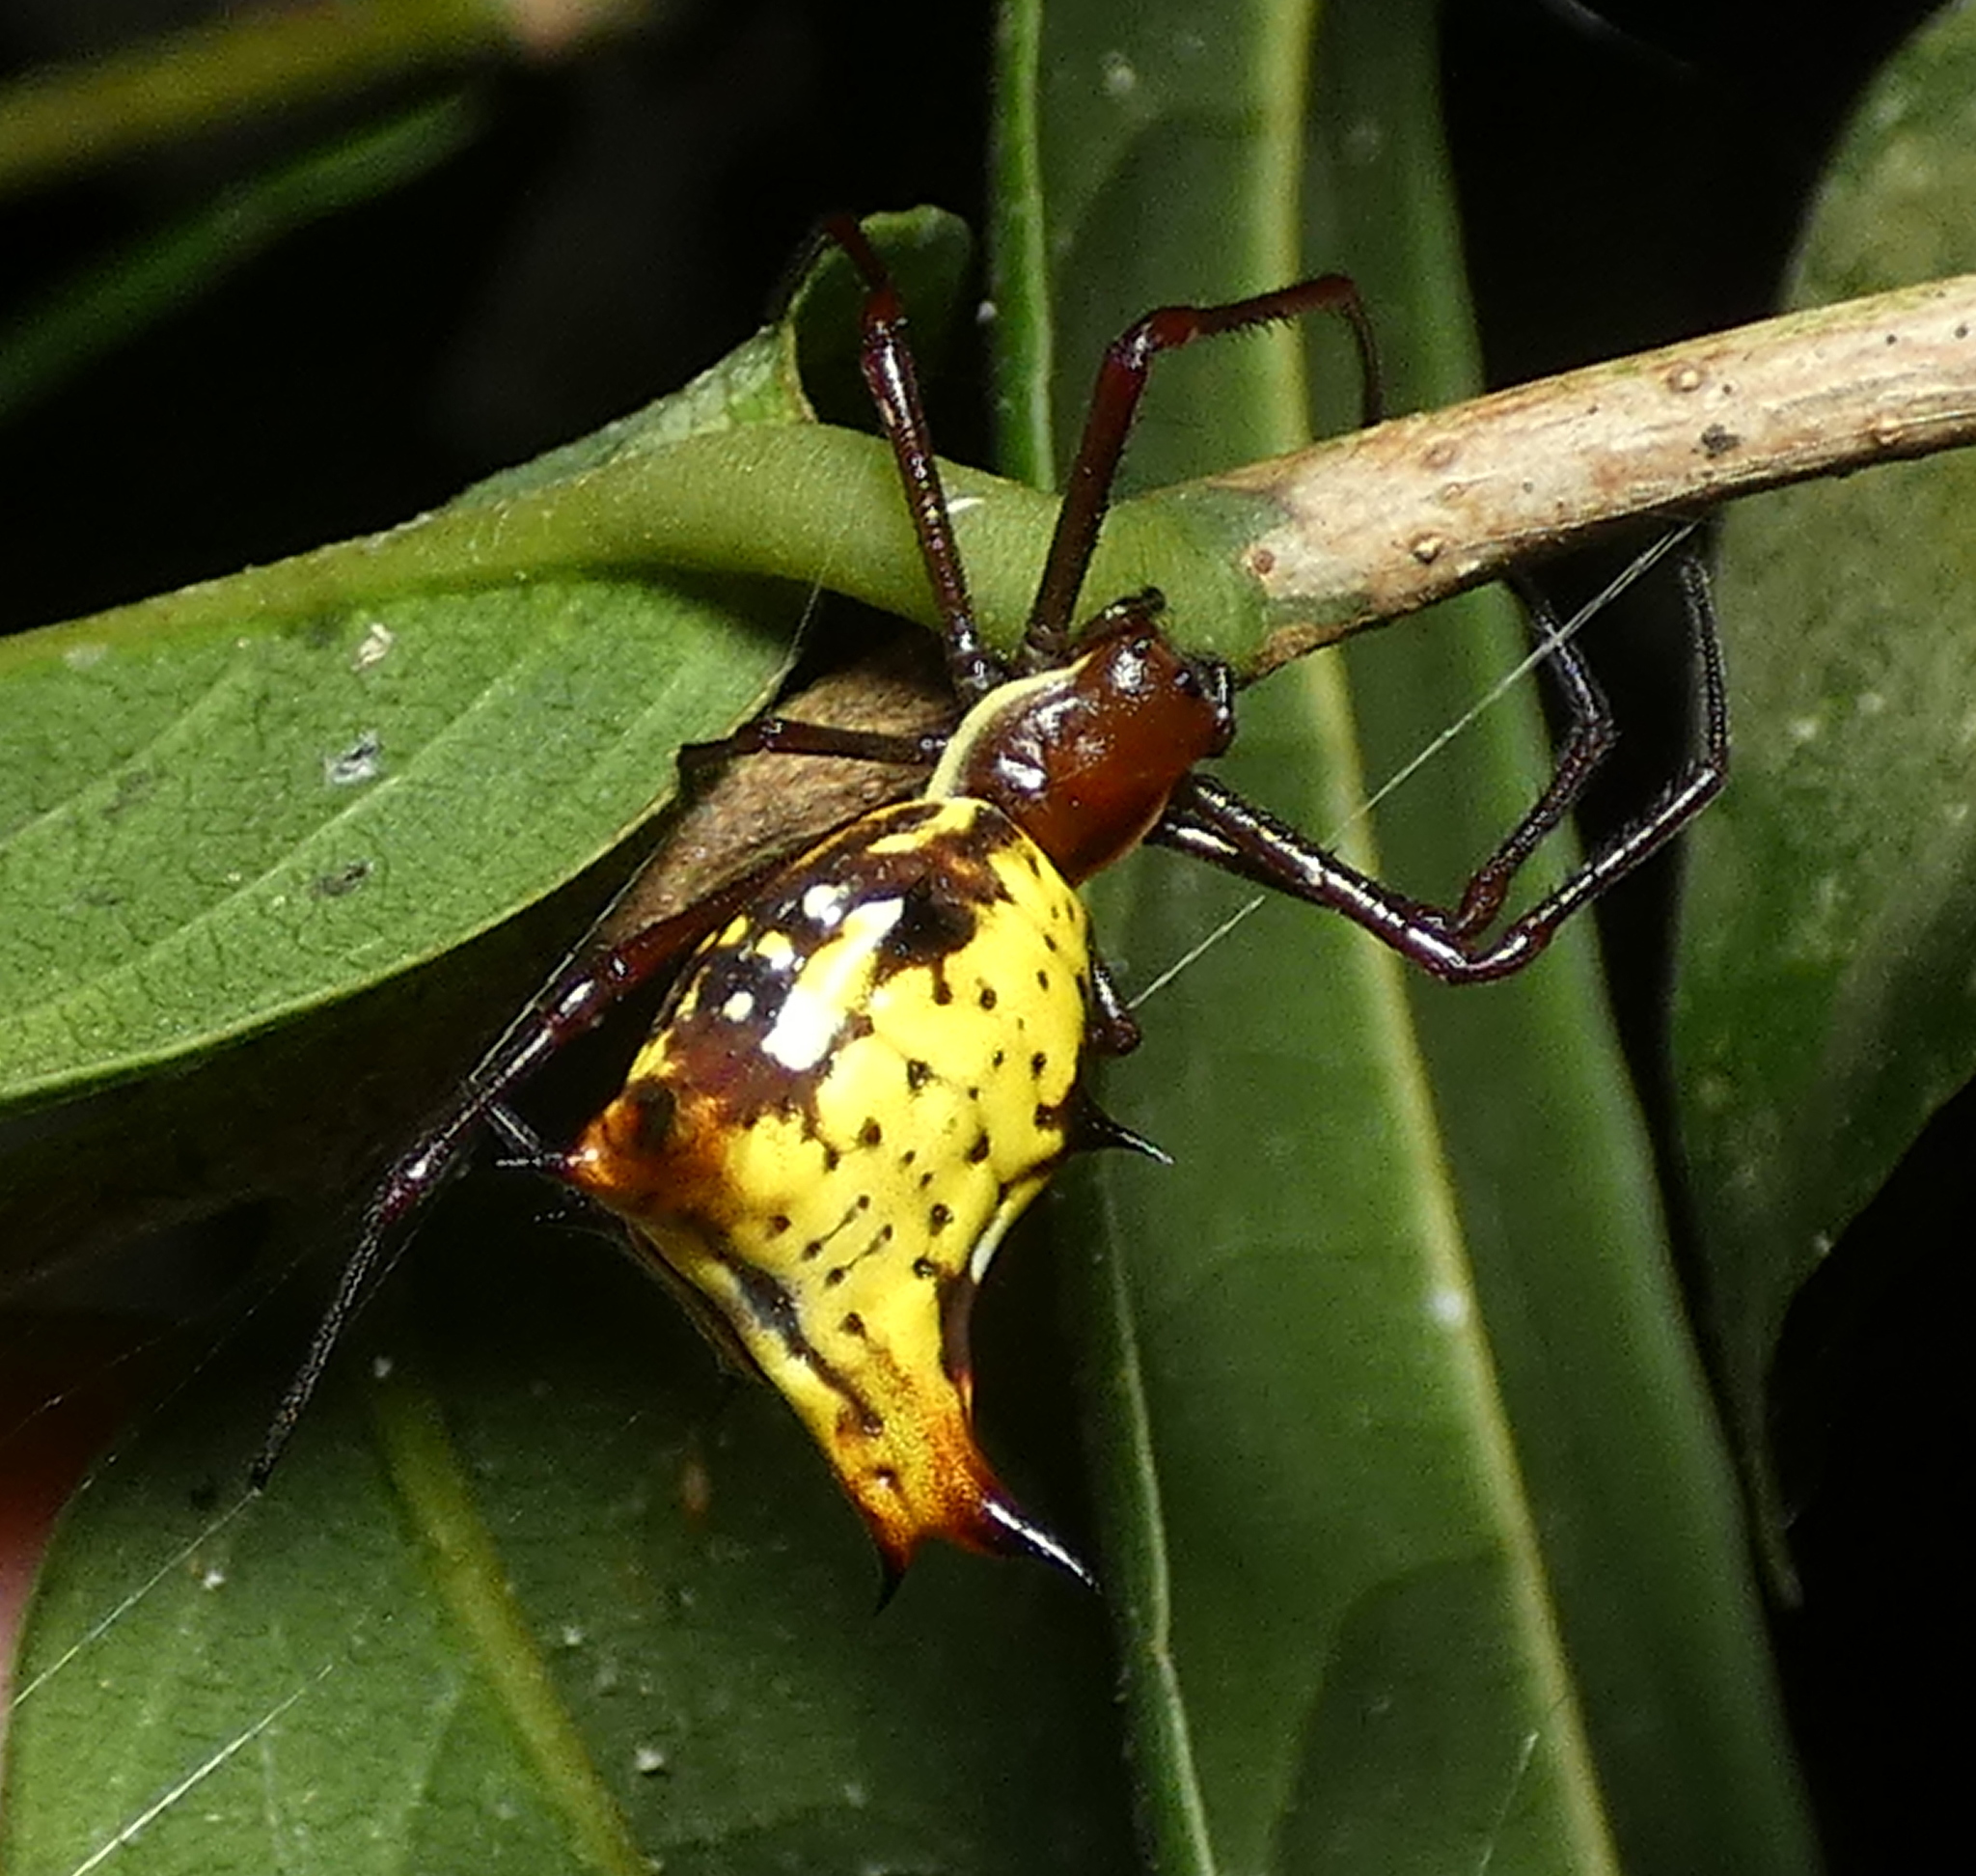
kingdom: Animalia
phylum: Arthropoda
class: Arachnida
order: Araneae
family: Araneidae
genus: Micrathena
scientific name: Micrathena fissispina
